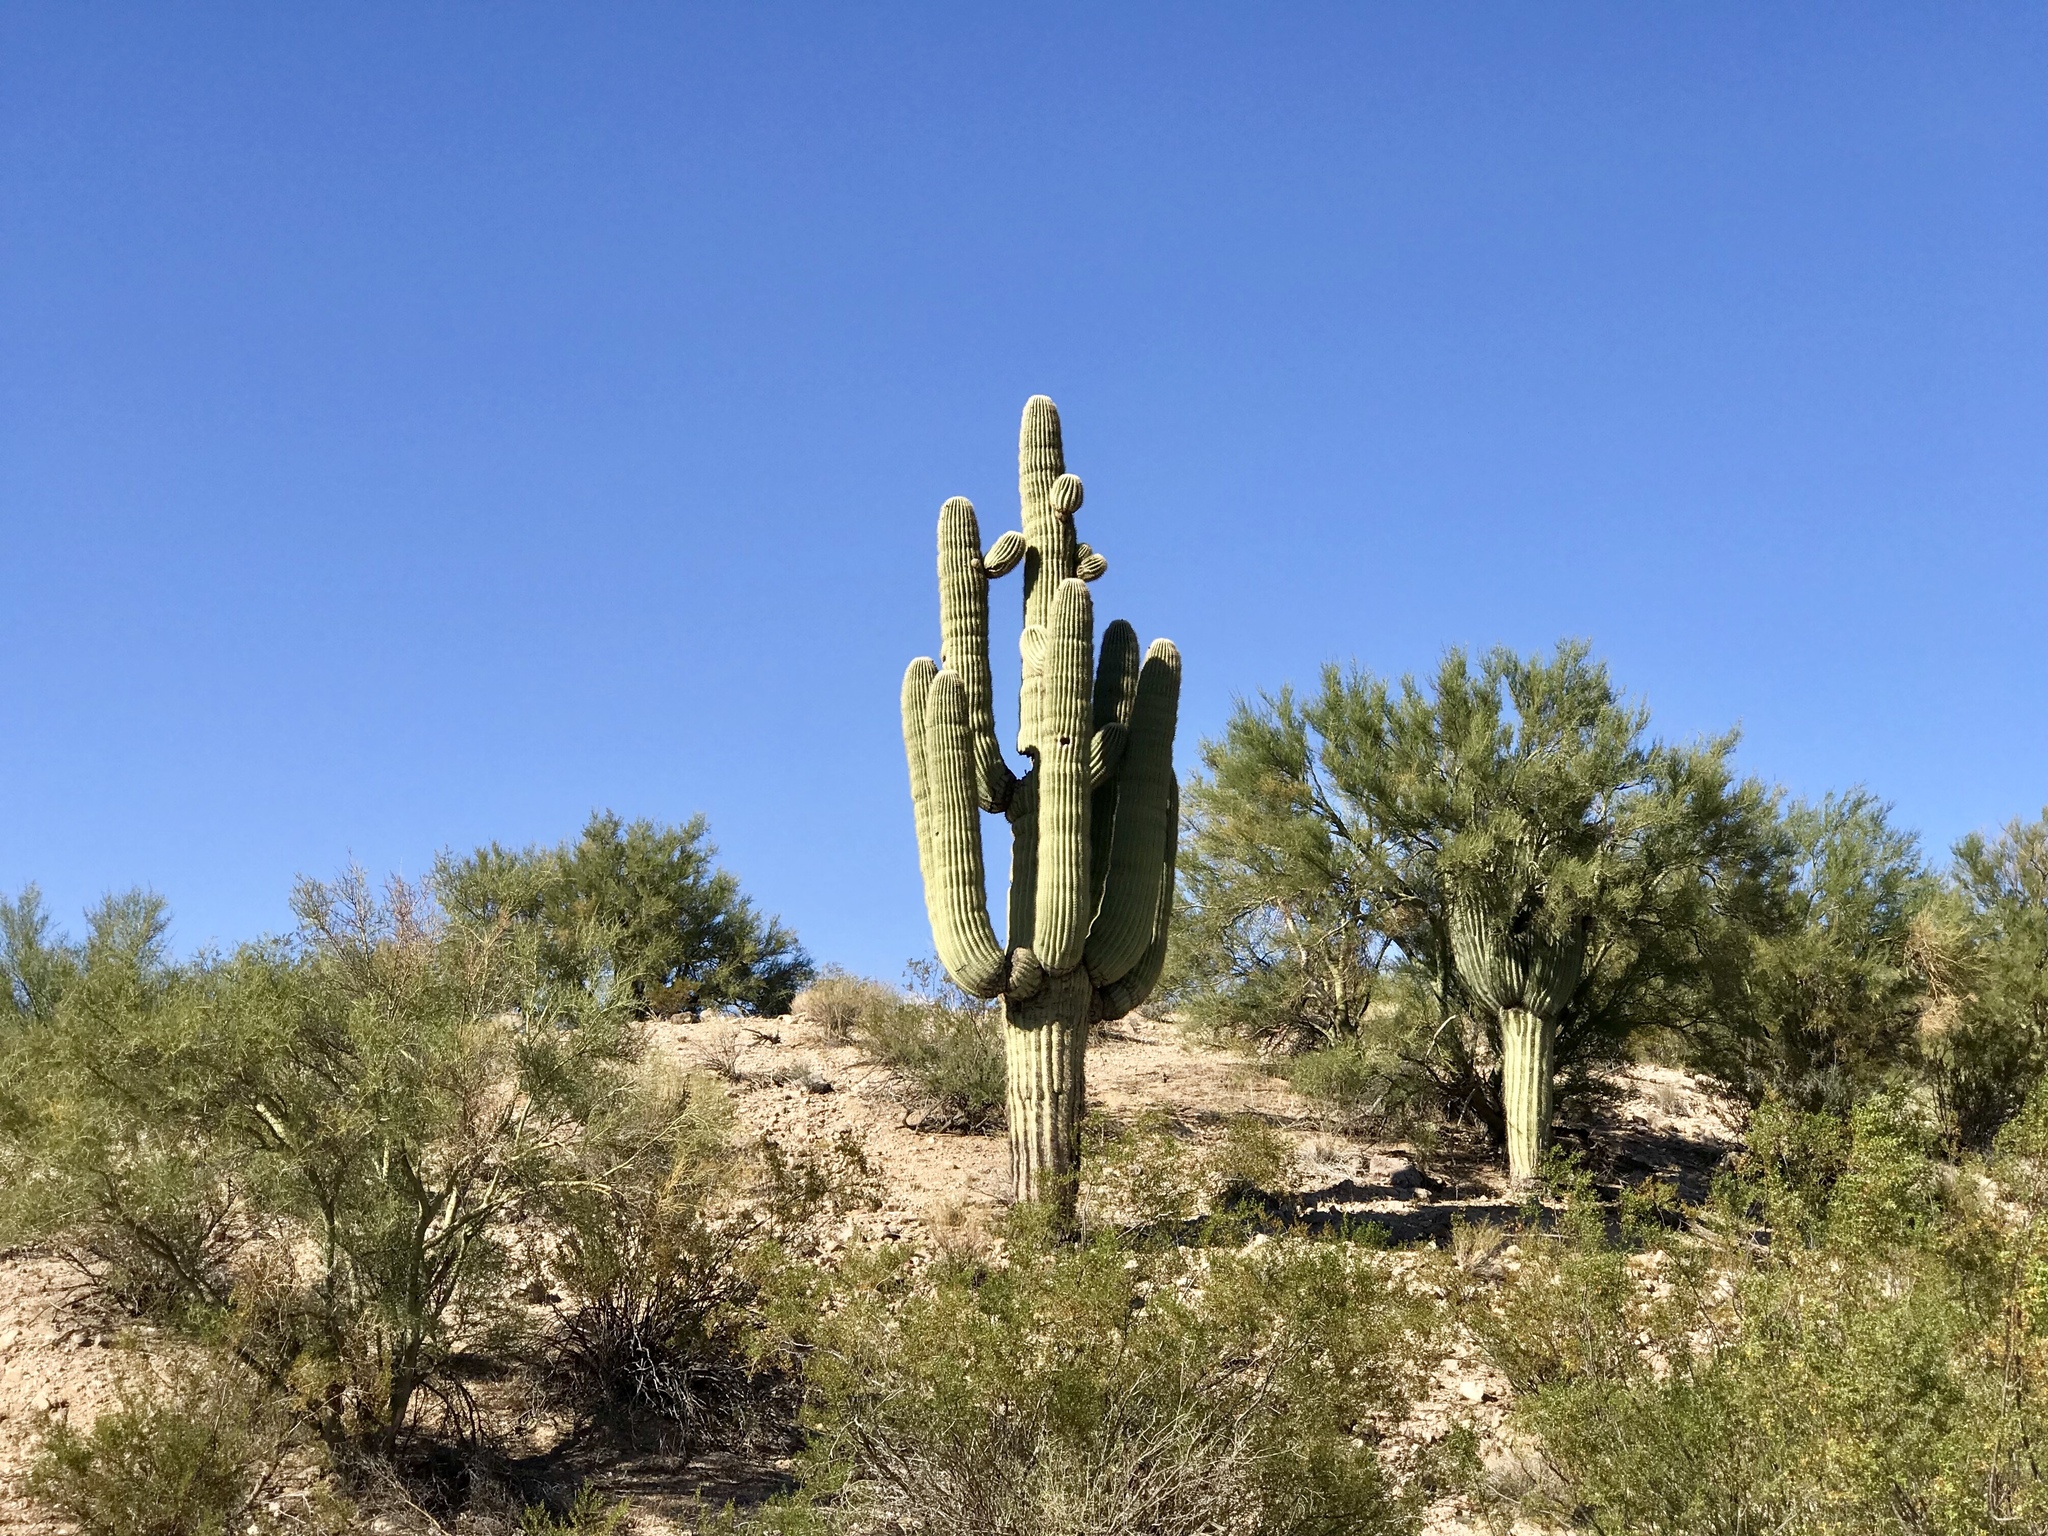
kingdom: Plantae
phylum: Tracheophyta
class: Magnoliopsida
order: Caryophyllales
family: Cactaceae
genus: Carnegiea
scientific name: Carnegiea gigantea
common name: Saguaro
